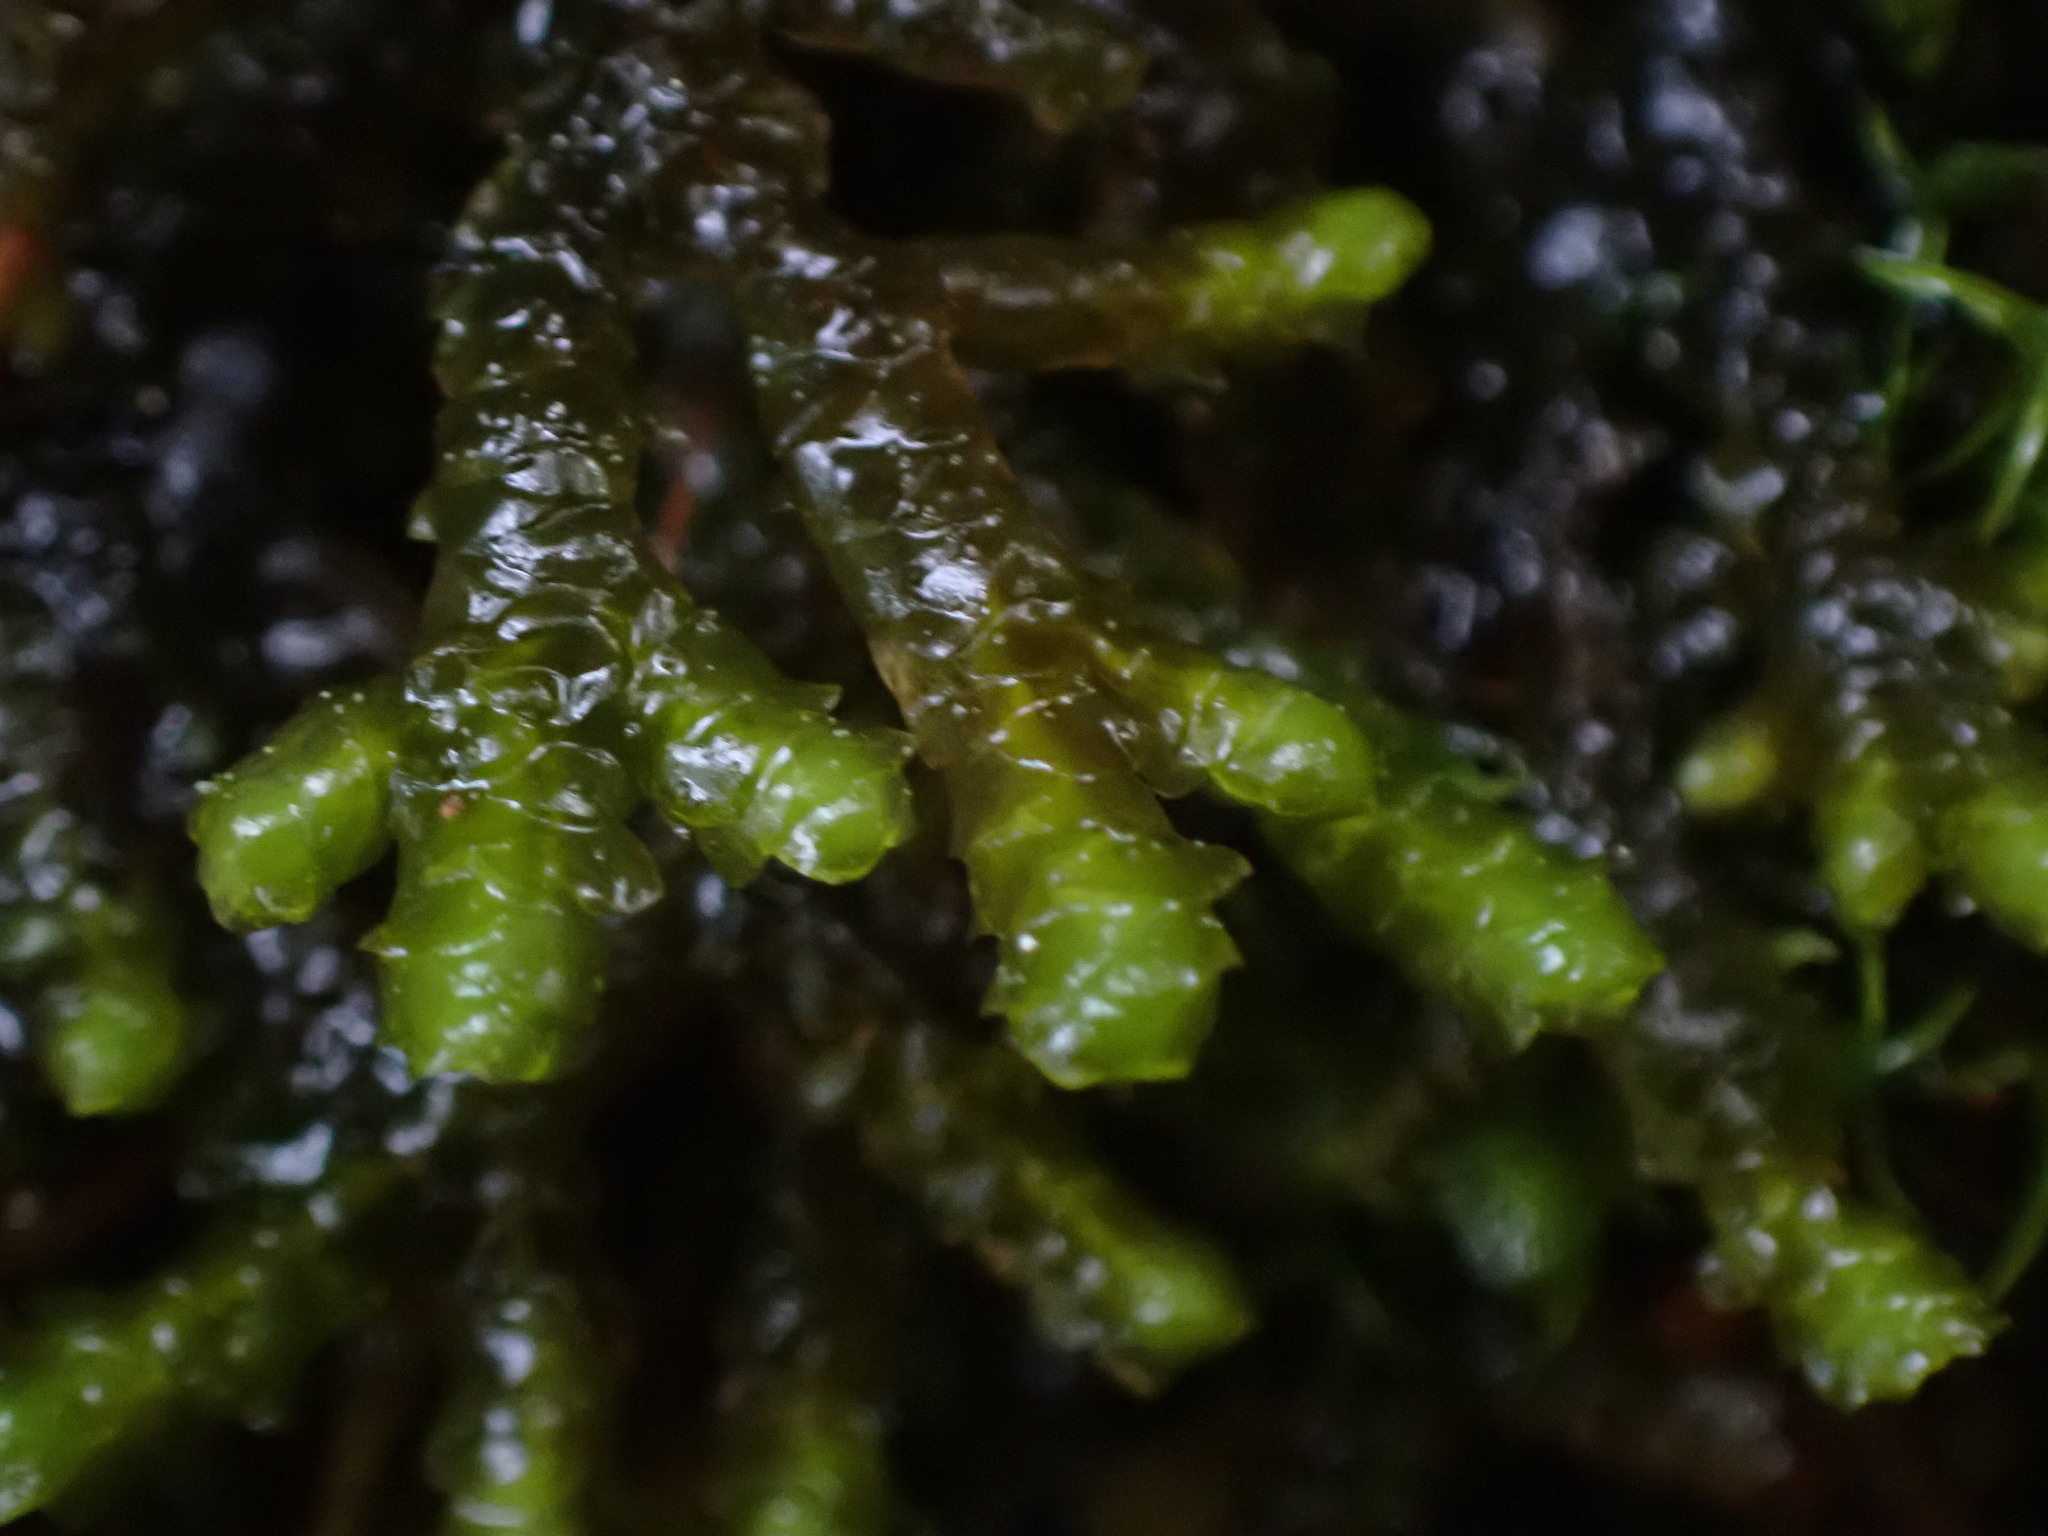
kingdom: Plantae
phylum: Marchantiophyta
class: Jungermanniopsida
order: Porellales
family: Porellaceae
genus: Porella
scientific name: Porella roellii
